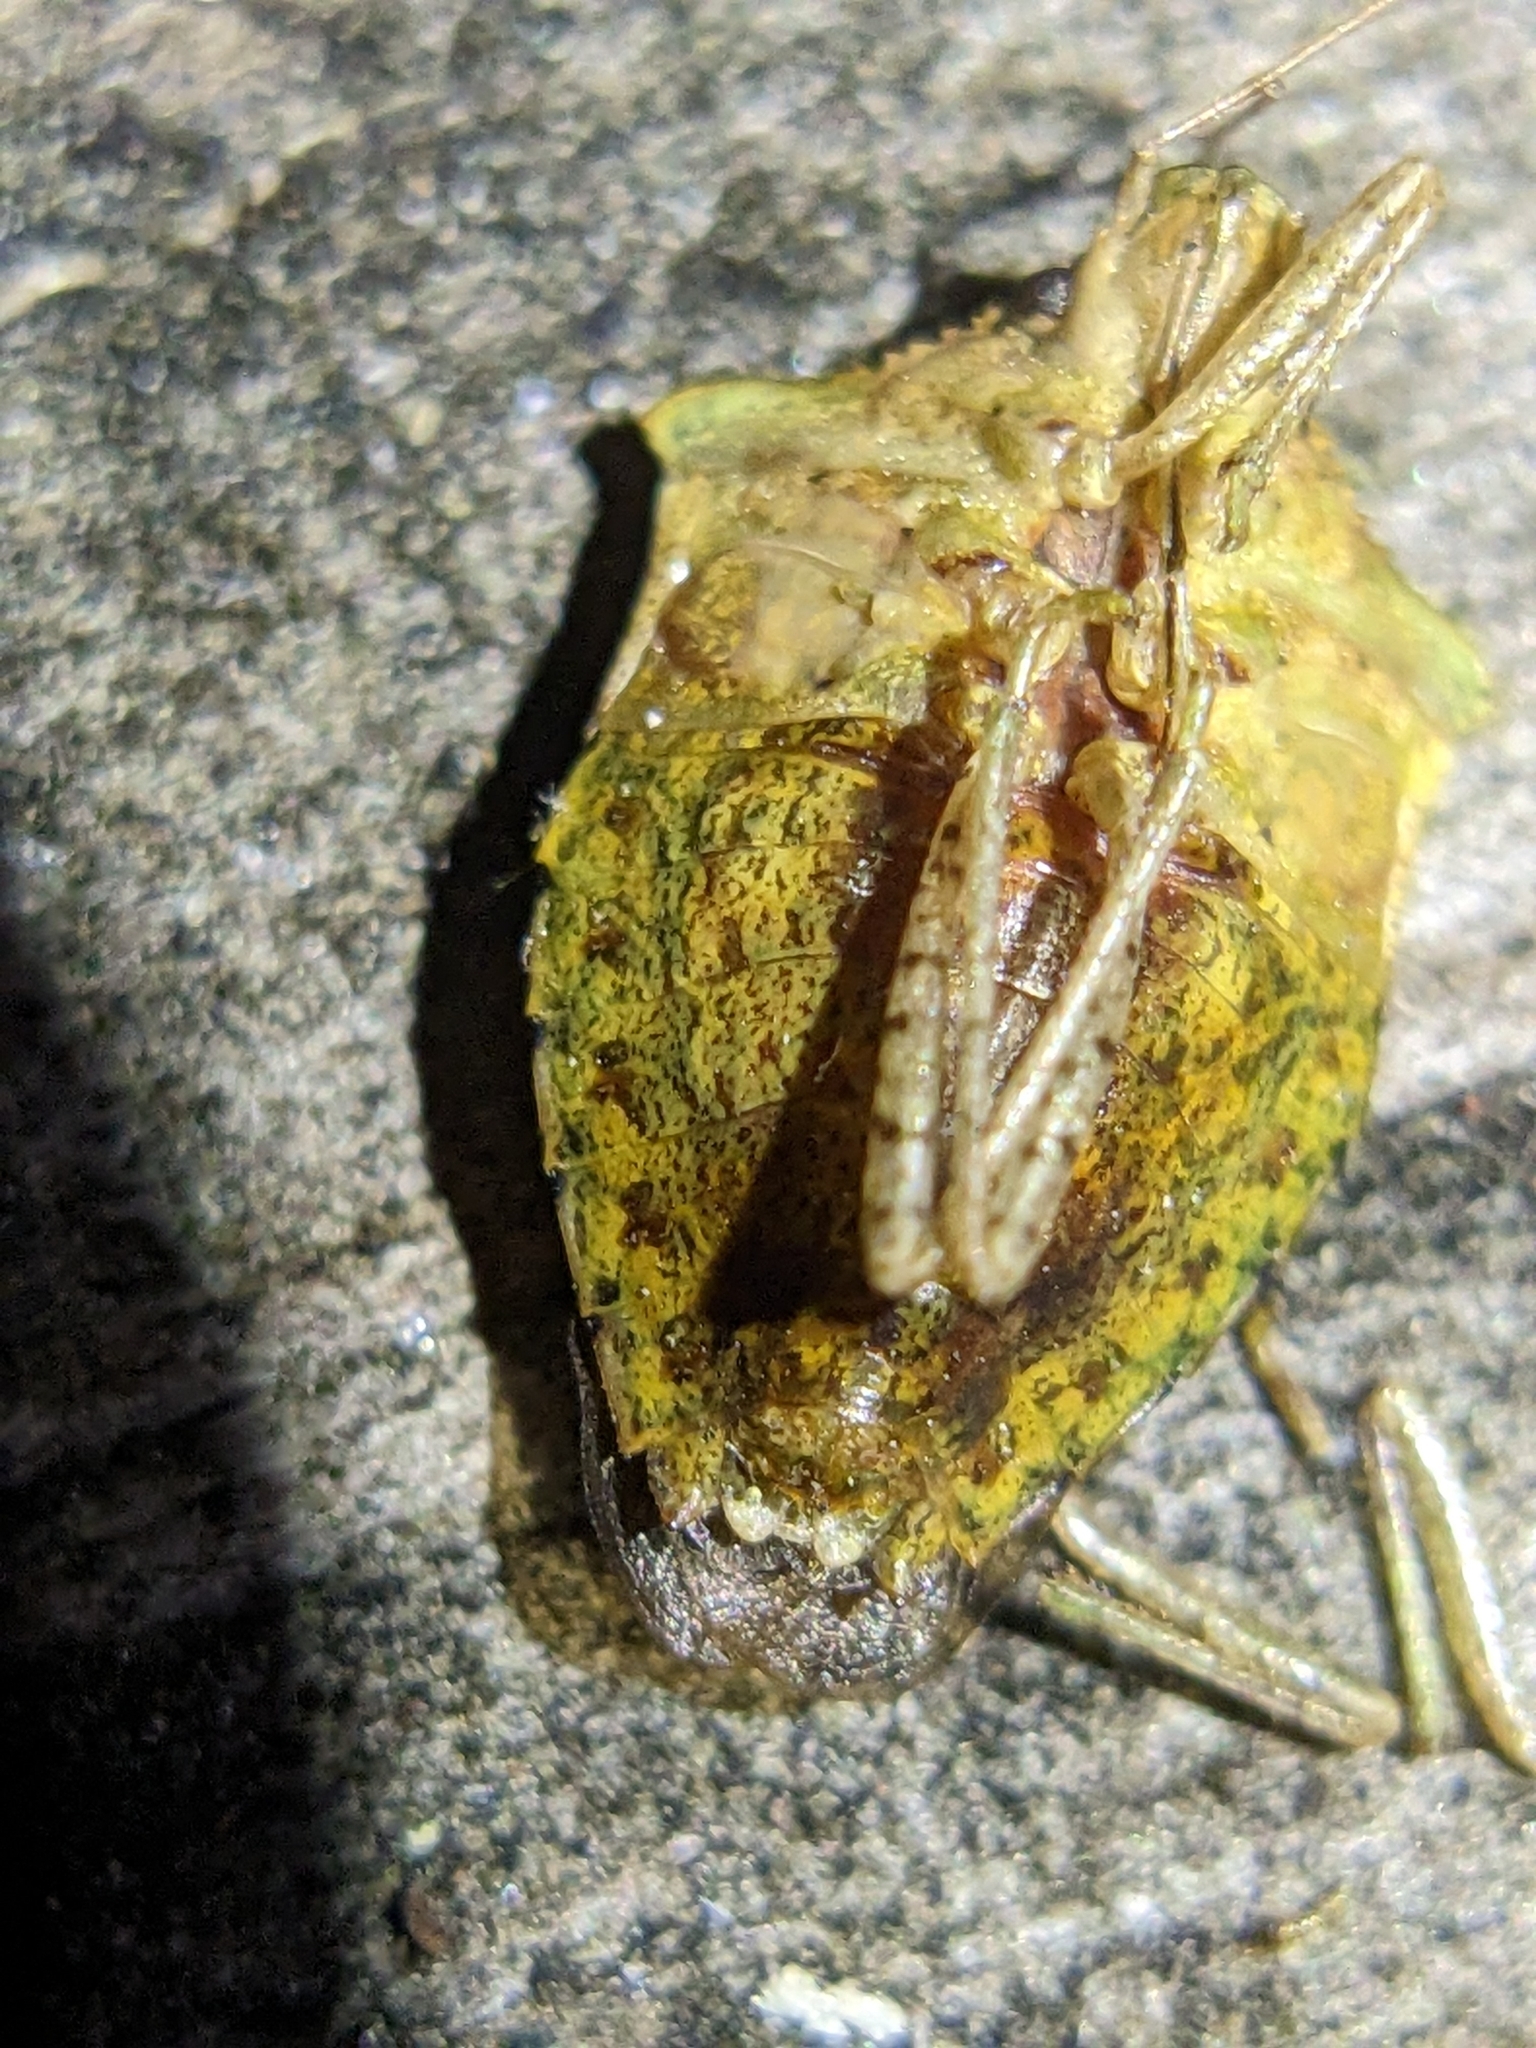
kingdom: Animalia
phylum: Arthropoda
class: Insecta
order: Hemiptera
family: Pentatomidae
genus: Euschistus
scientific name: Euschistus obscurus
